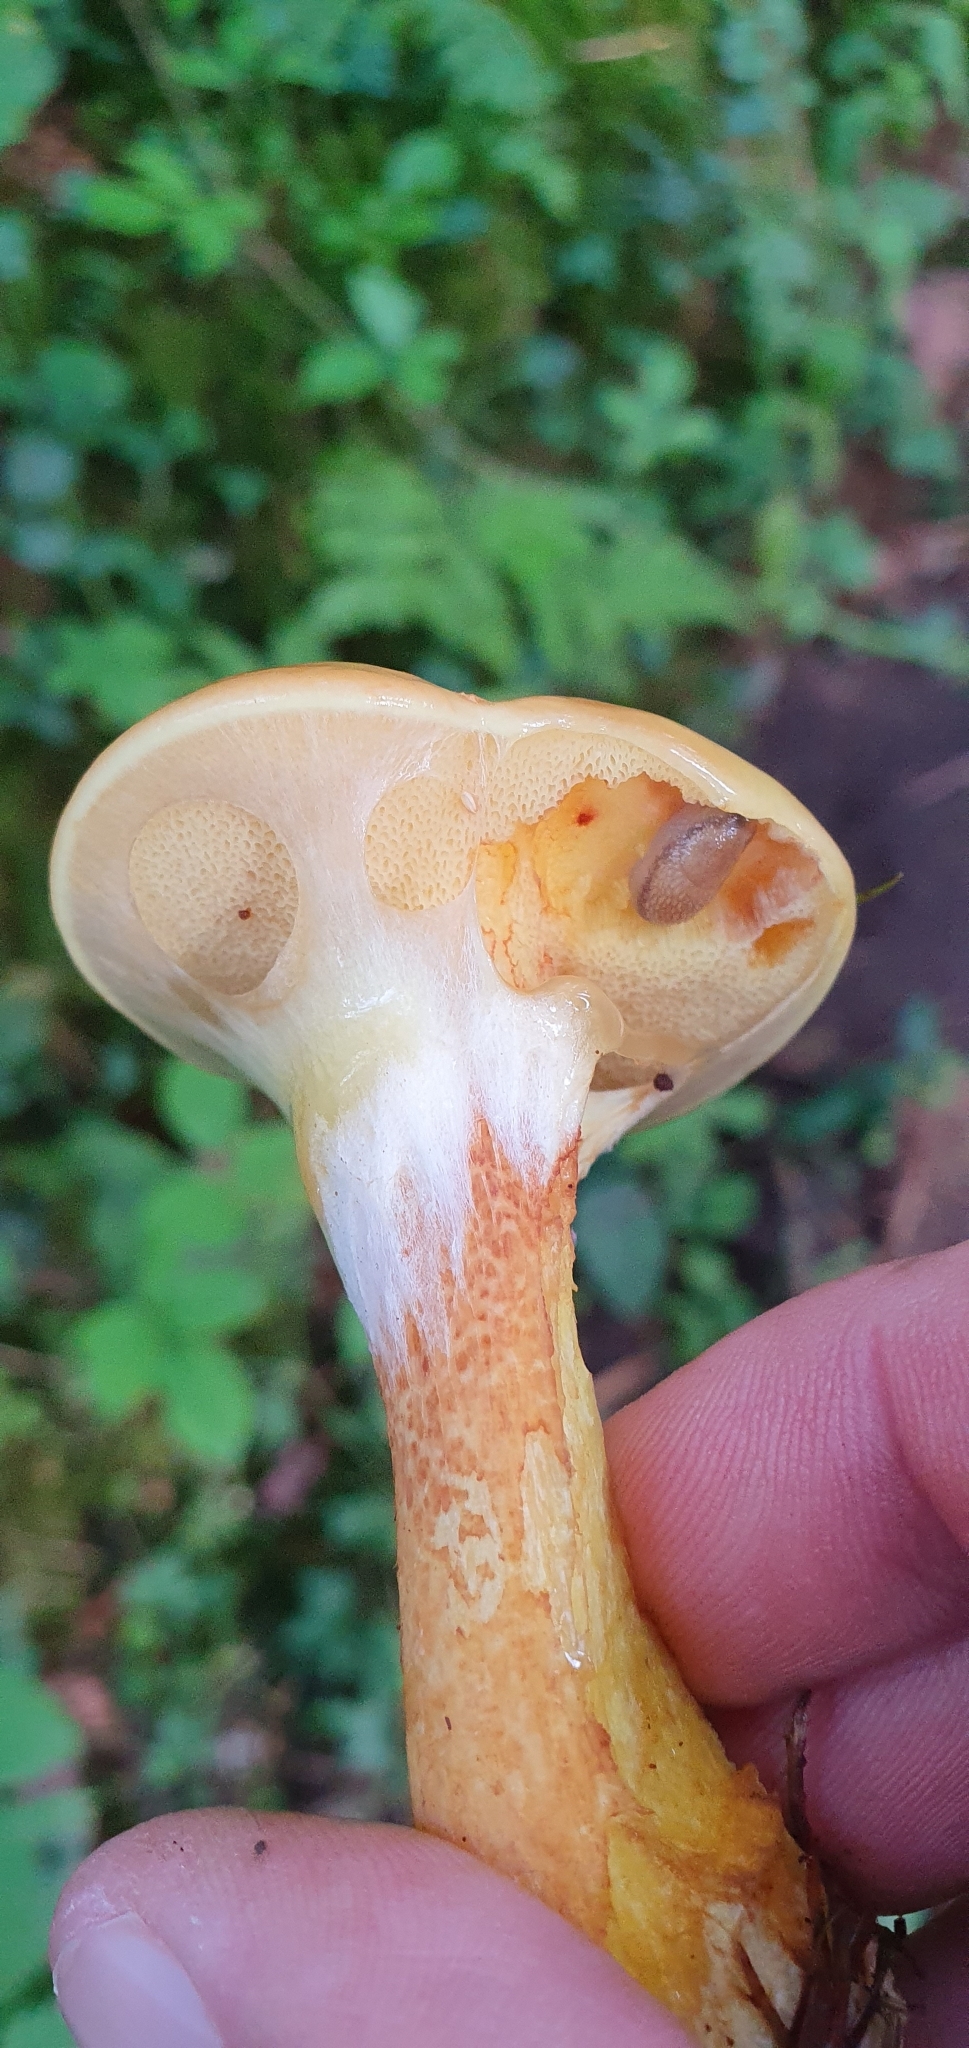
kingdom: Fungi
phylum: Basidiomycota
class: Agaricomycetes
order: Boletales
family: Suillaceae
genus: Suillus
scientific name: Suillus grevillei
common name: Larch bolete
